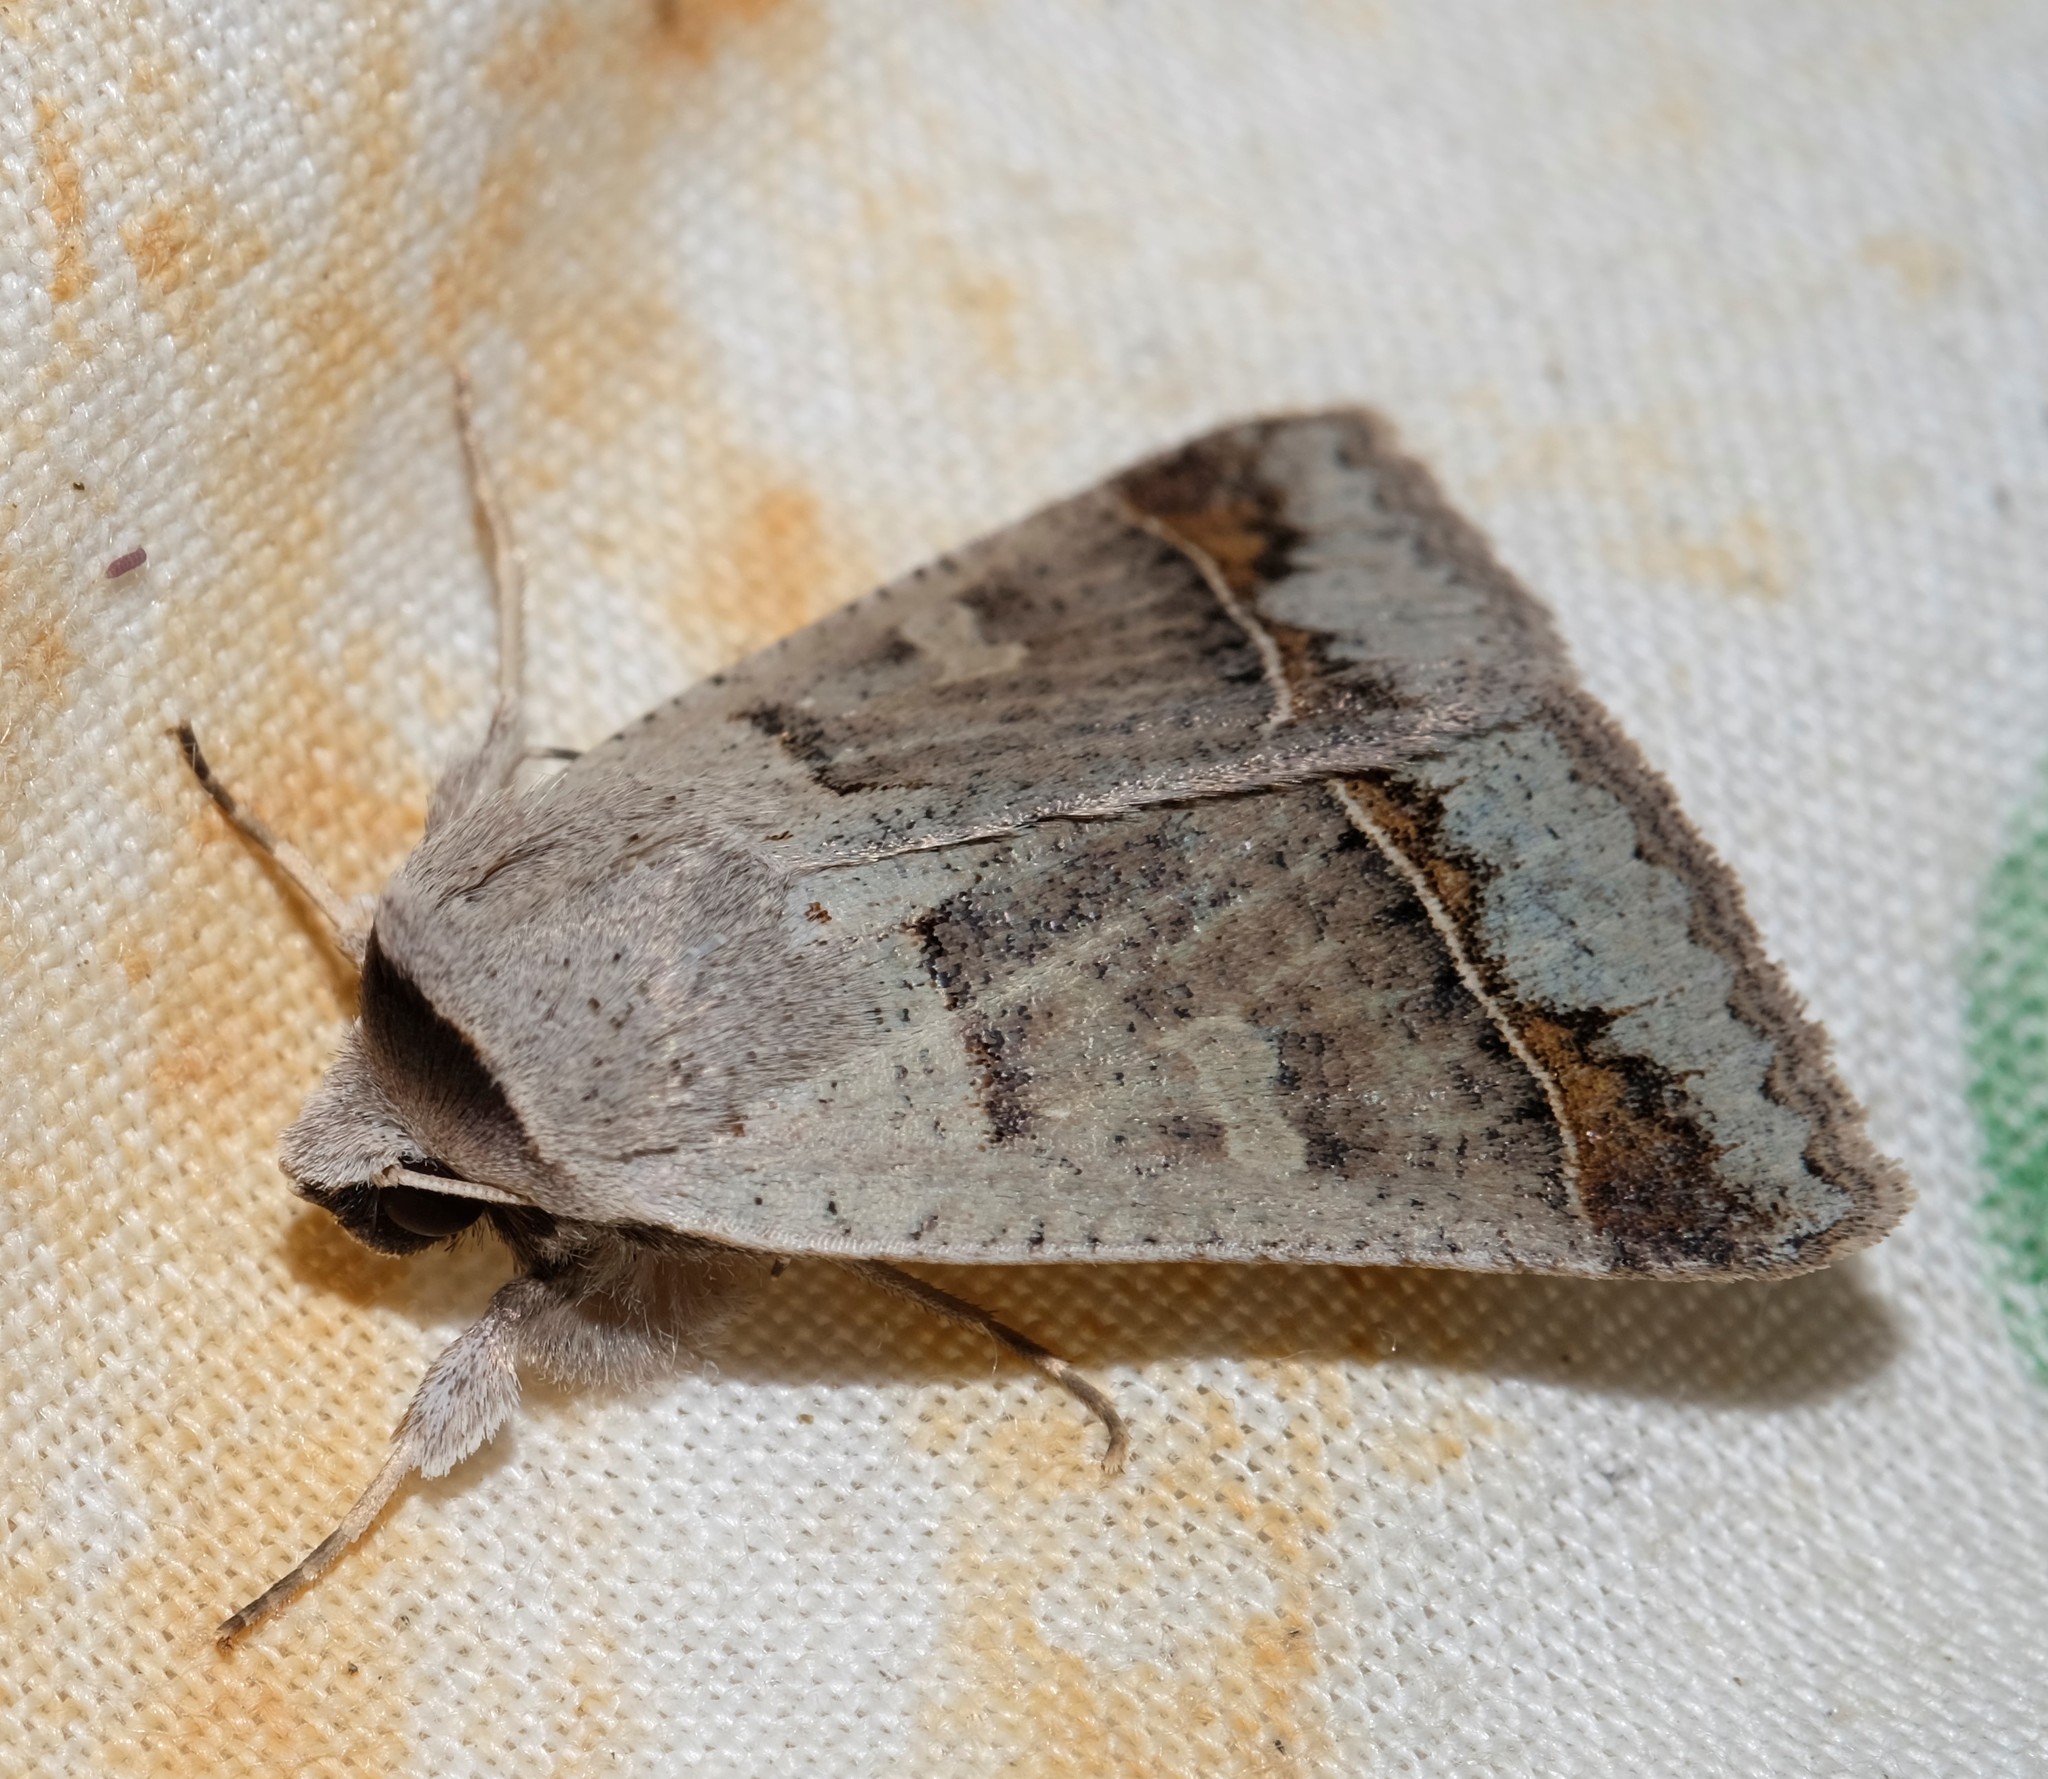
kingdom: Animalia
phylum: Arthropoda
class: Insecta
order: Lepidoptera
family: Erebidae
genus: Pantydia
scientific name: Pantydia sparsa
